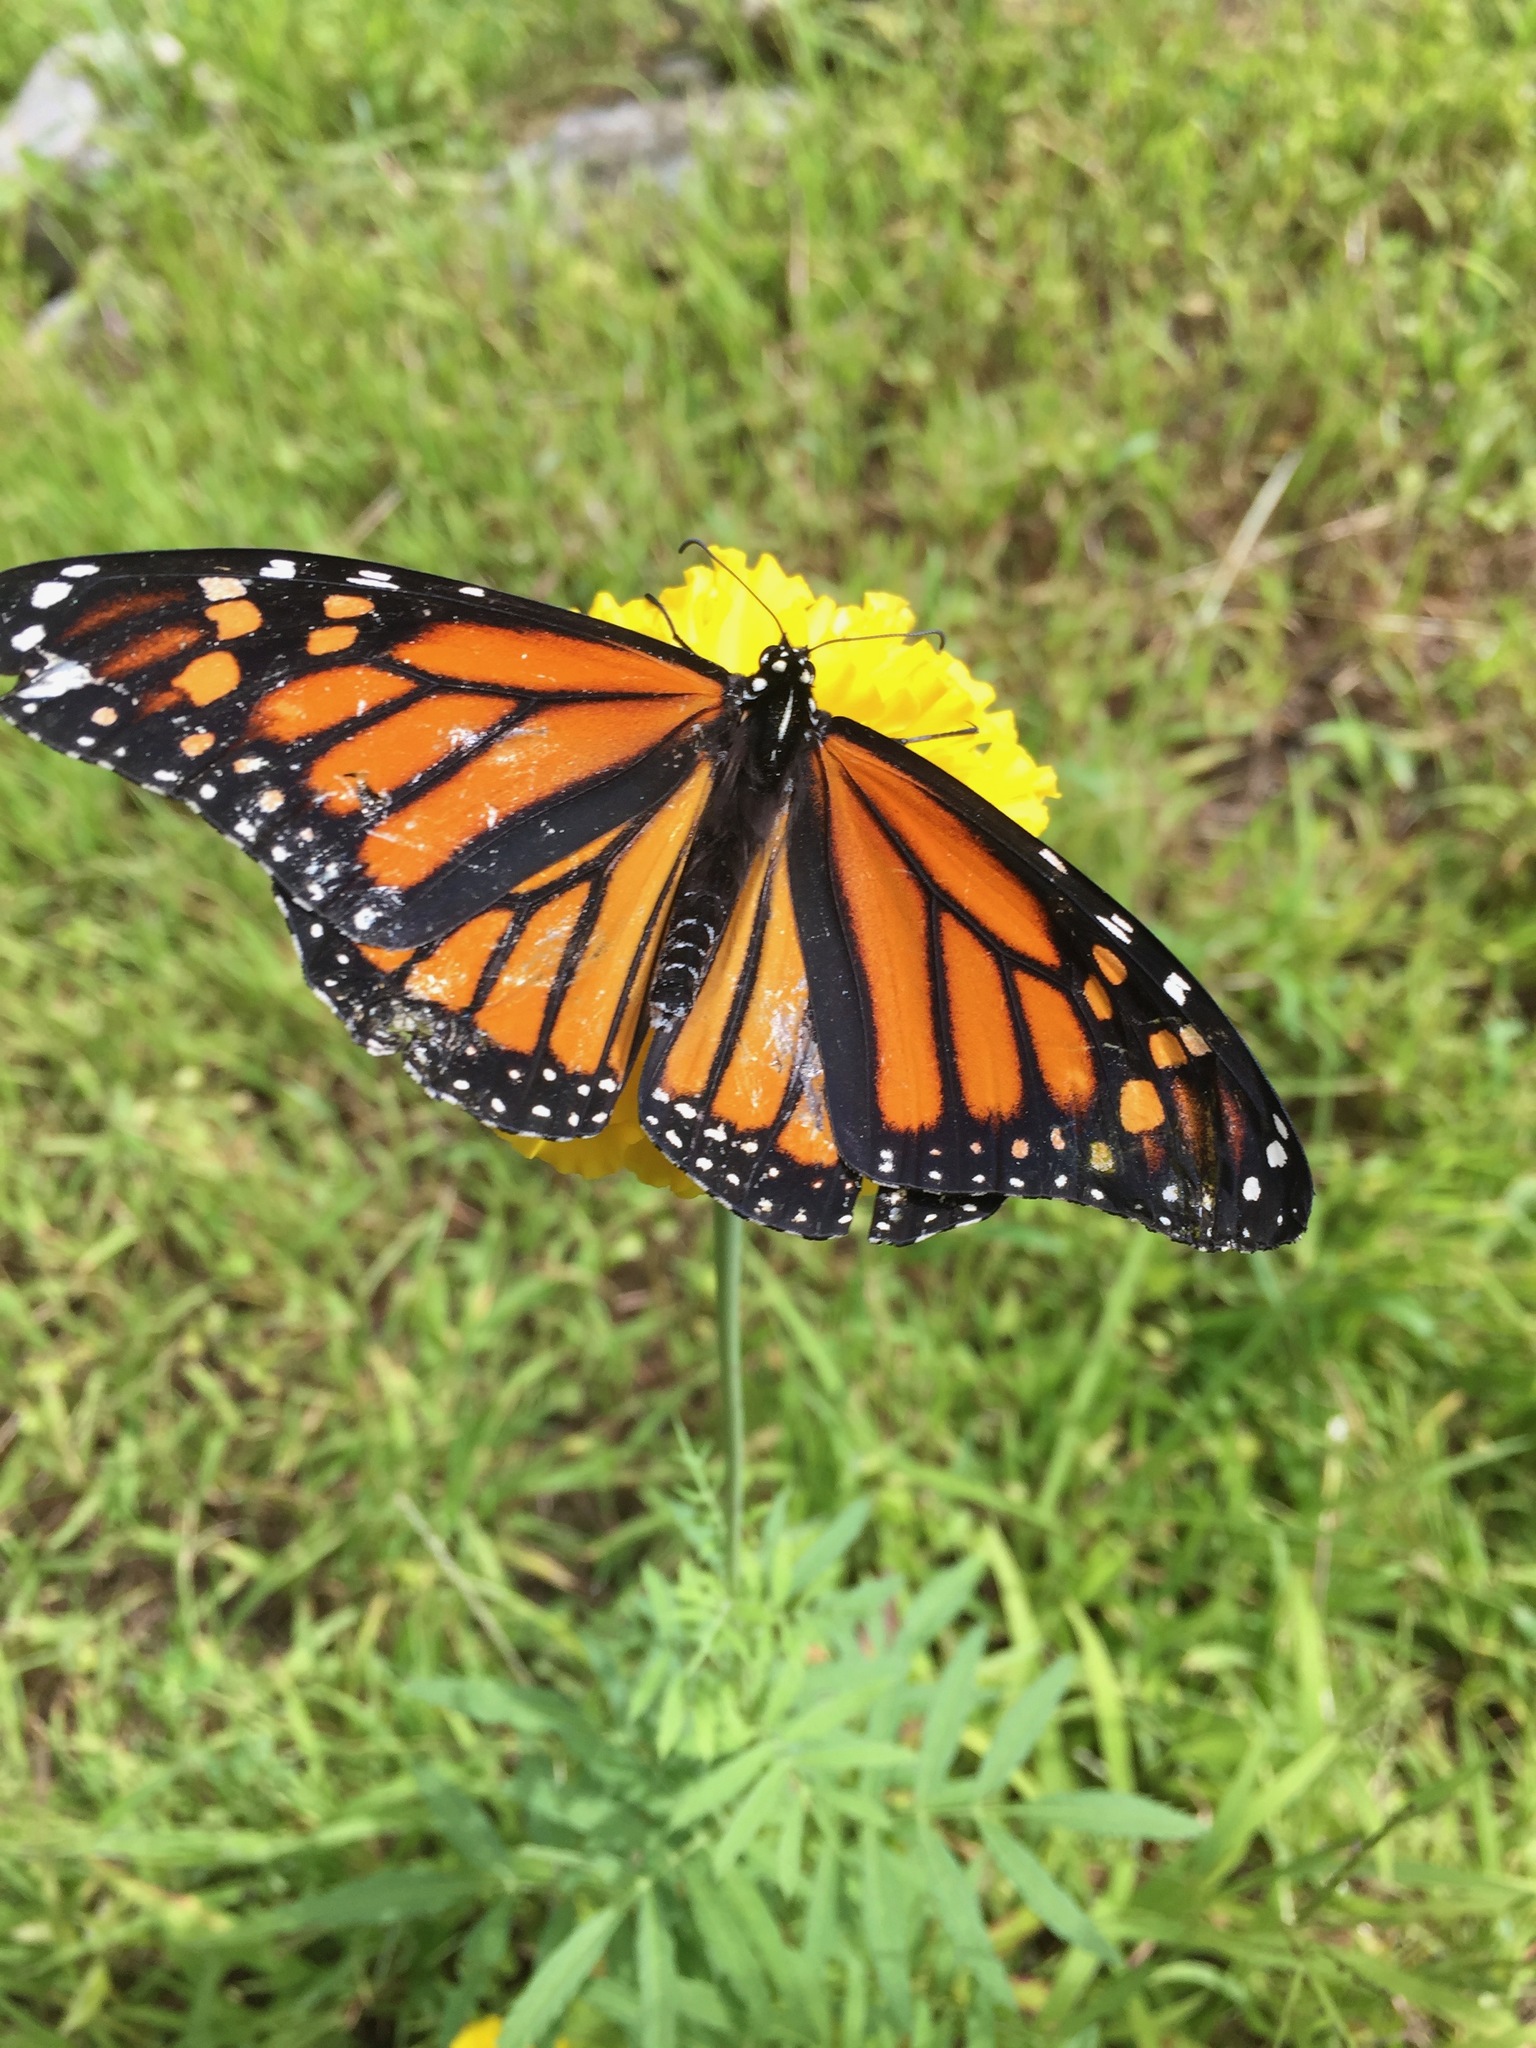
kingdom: Animalia
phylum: Arthropoda
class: Insecta
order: Lepidoptera
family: Nymphalidae
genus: Danaus
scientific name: Danaus plexippus
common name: Monarch
